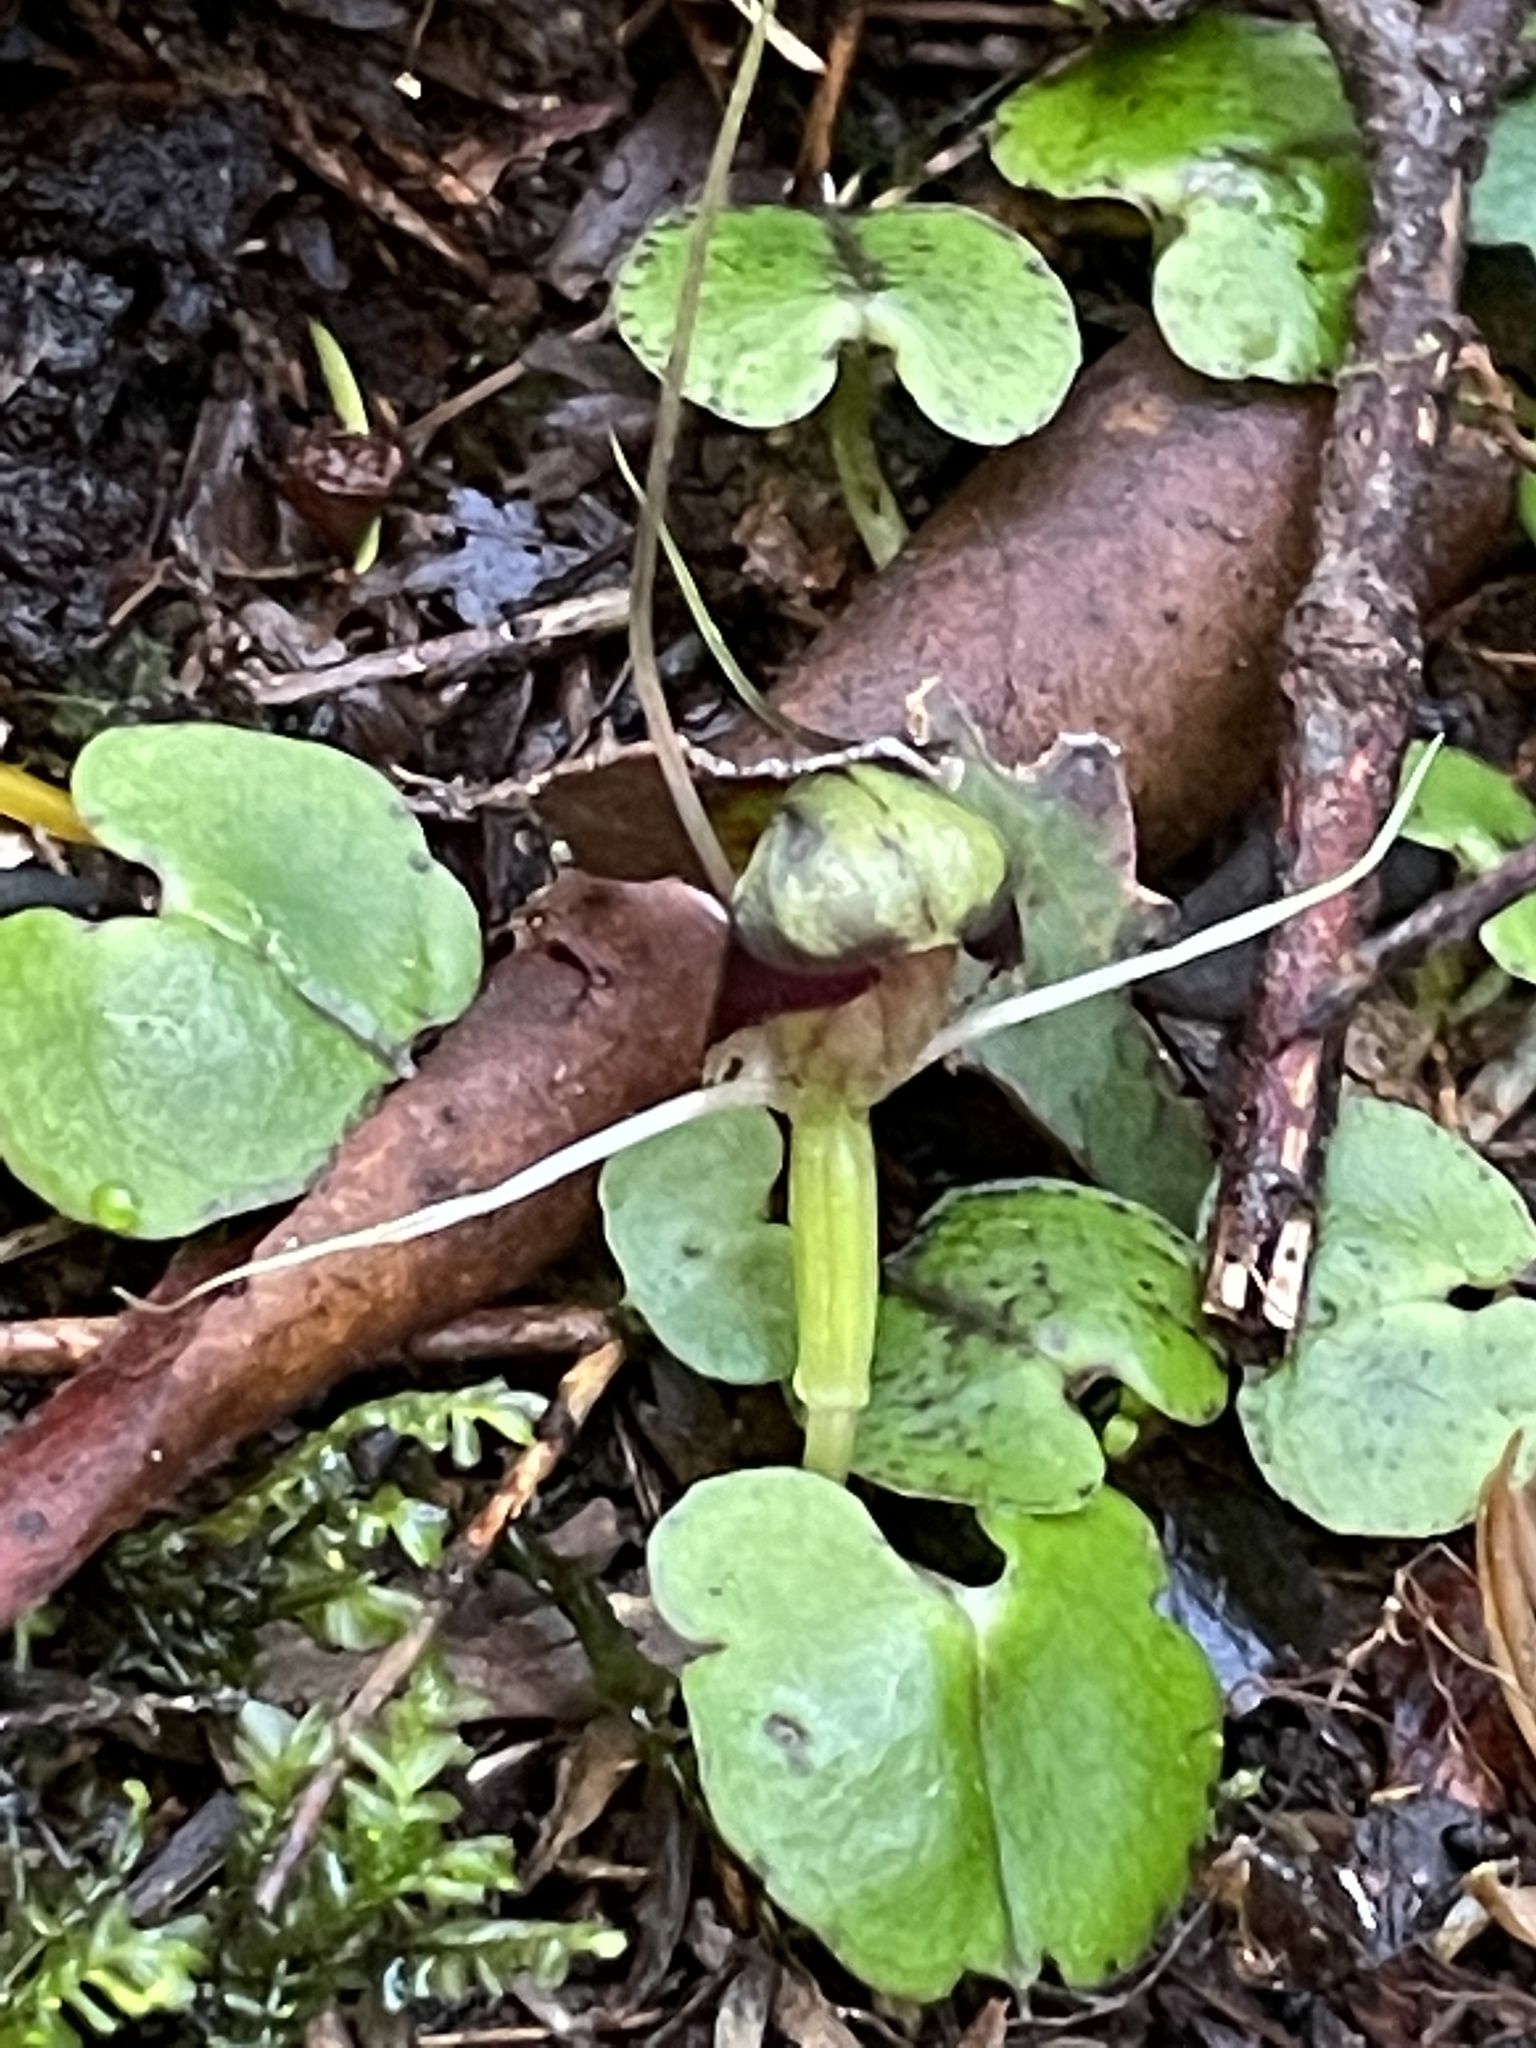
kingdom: Plantae
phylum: Tracheophyta
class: Liliopsida
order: Asparagales
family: Orchidaceae
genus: Corybas
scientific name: Corybas vitreus
